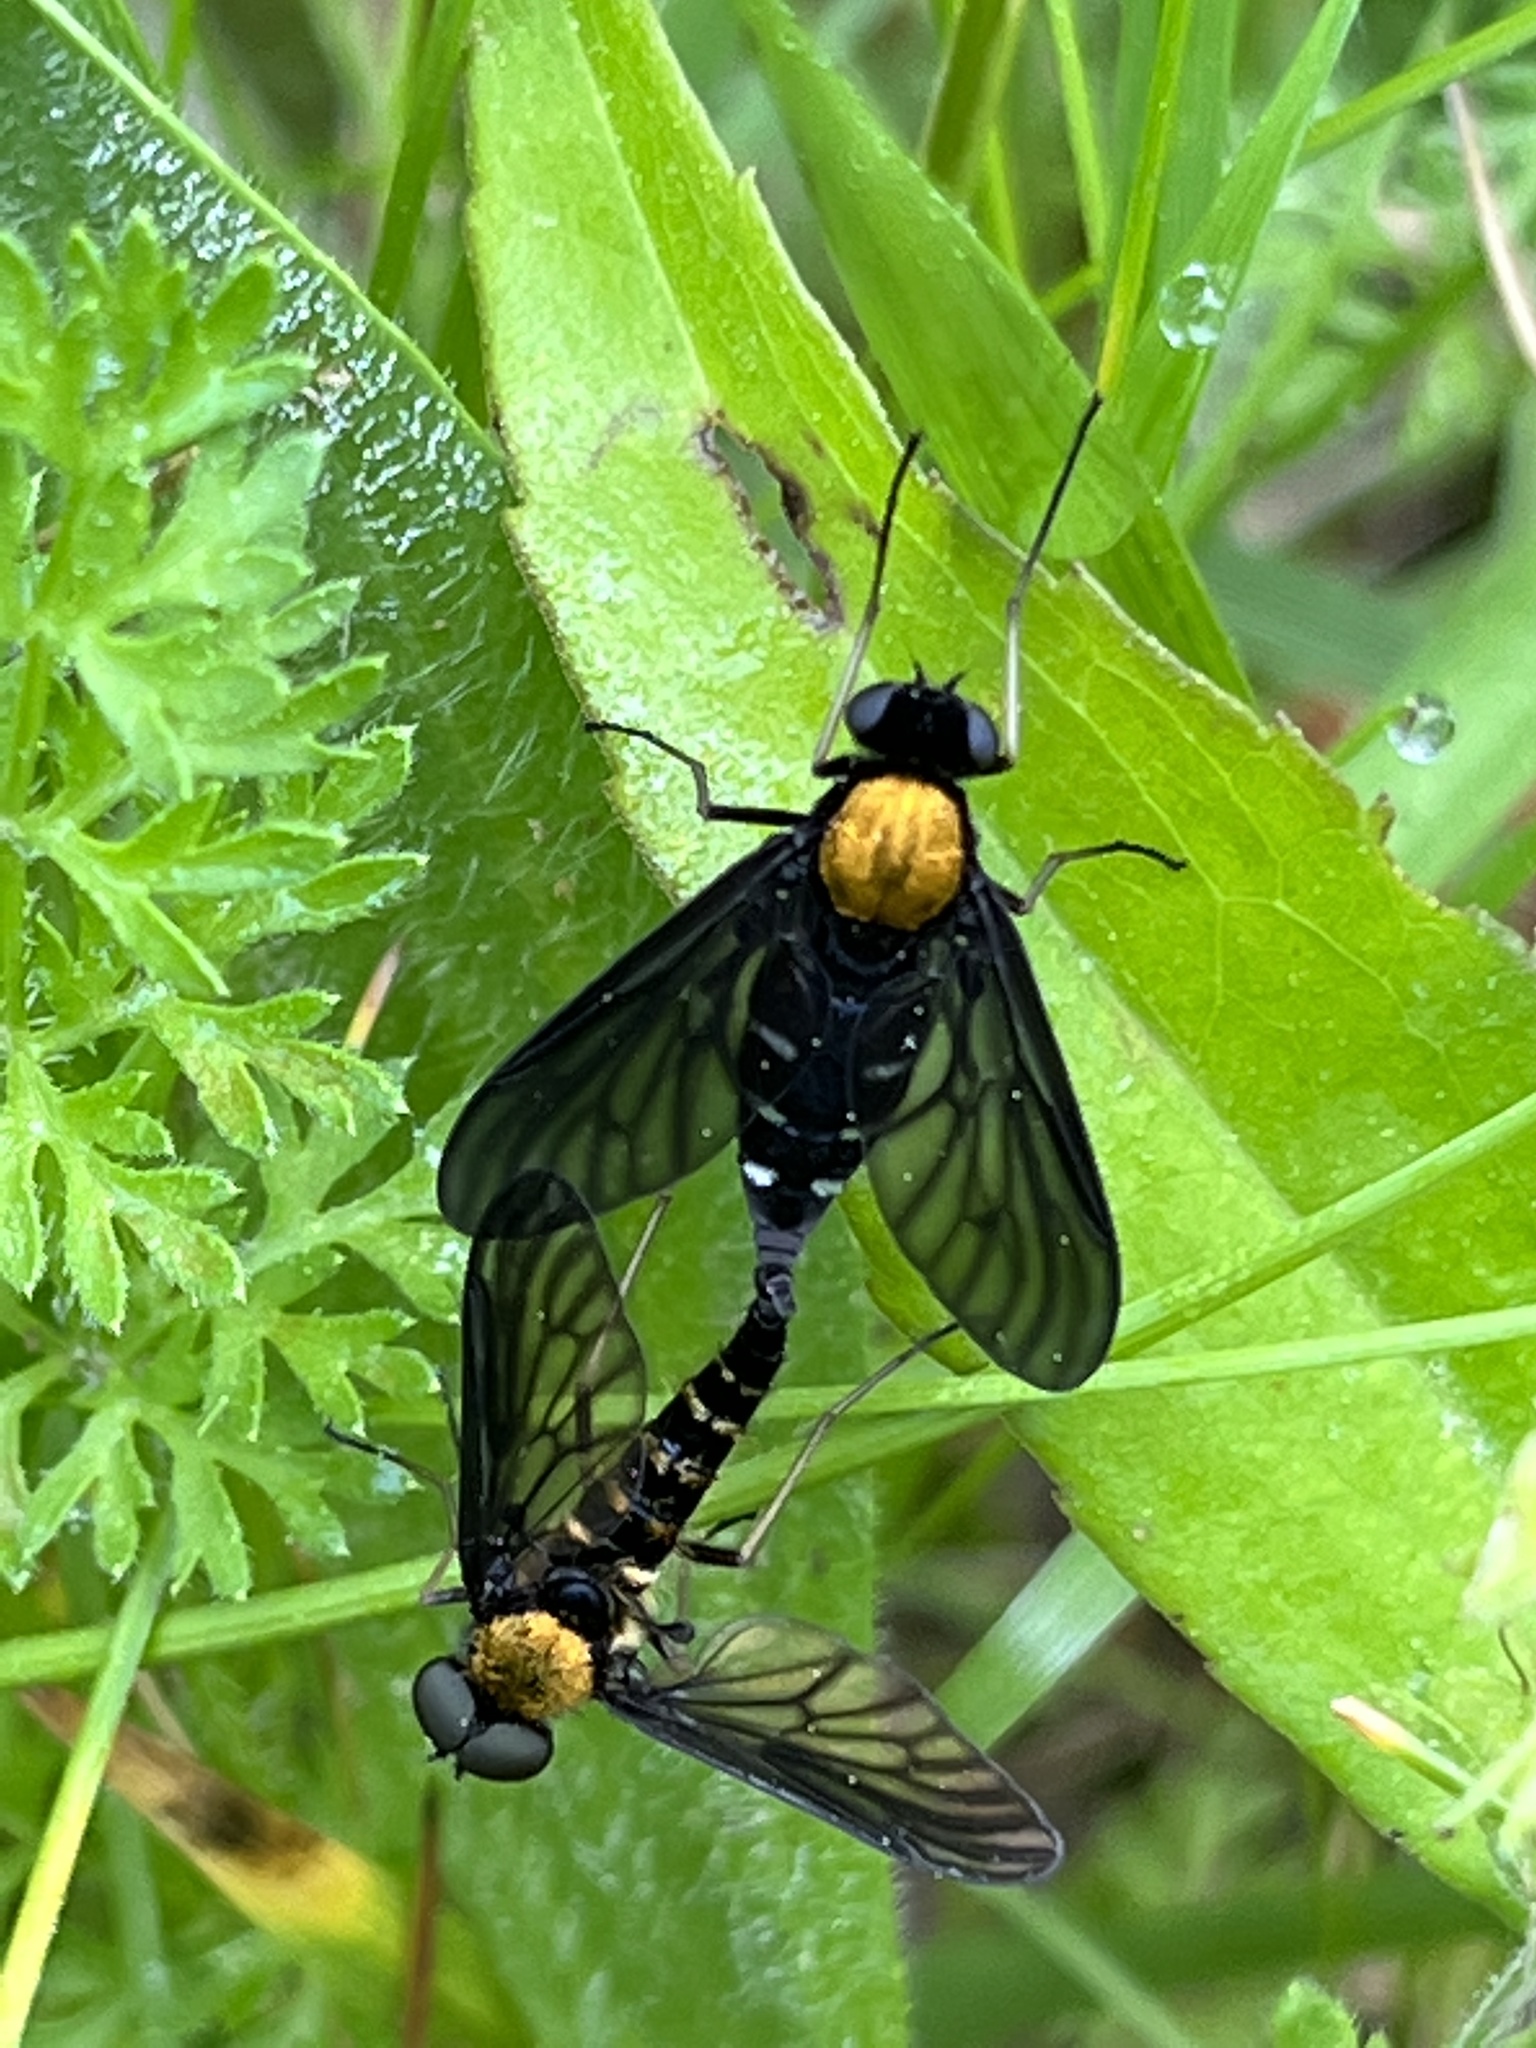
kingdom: Animalia
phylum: Arthropoda
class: Insecta
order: Diptera
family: Rhagionidae
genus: Chrysopilus
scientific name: Chrysopilus thoracicus
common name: Golden-backed snipe fly
